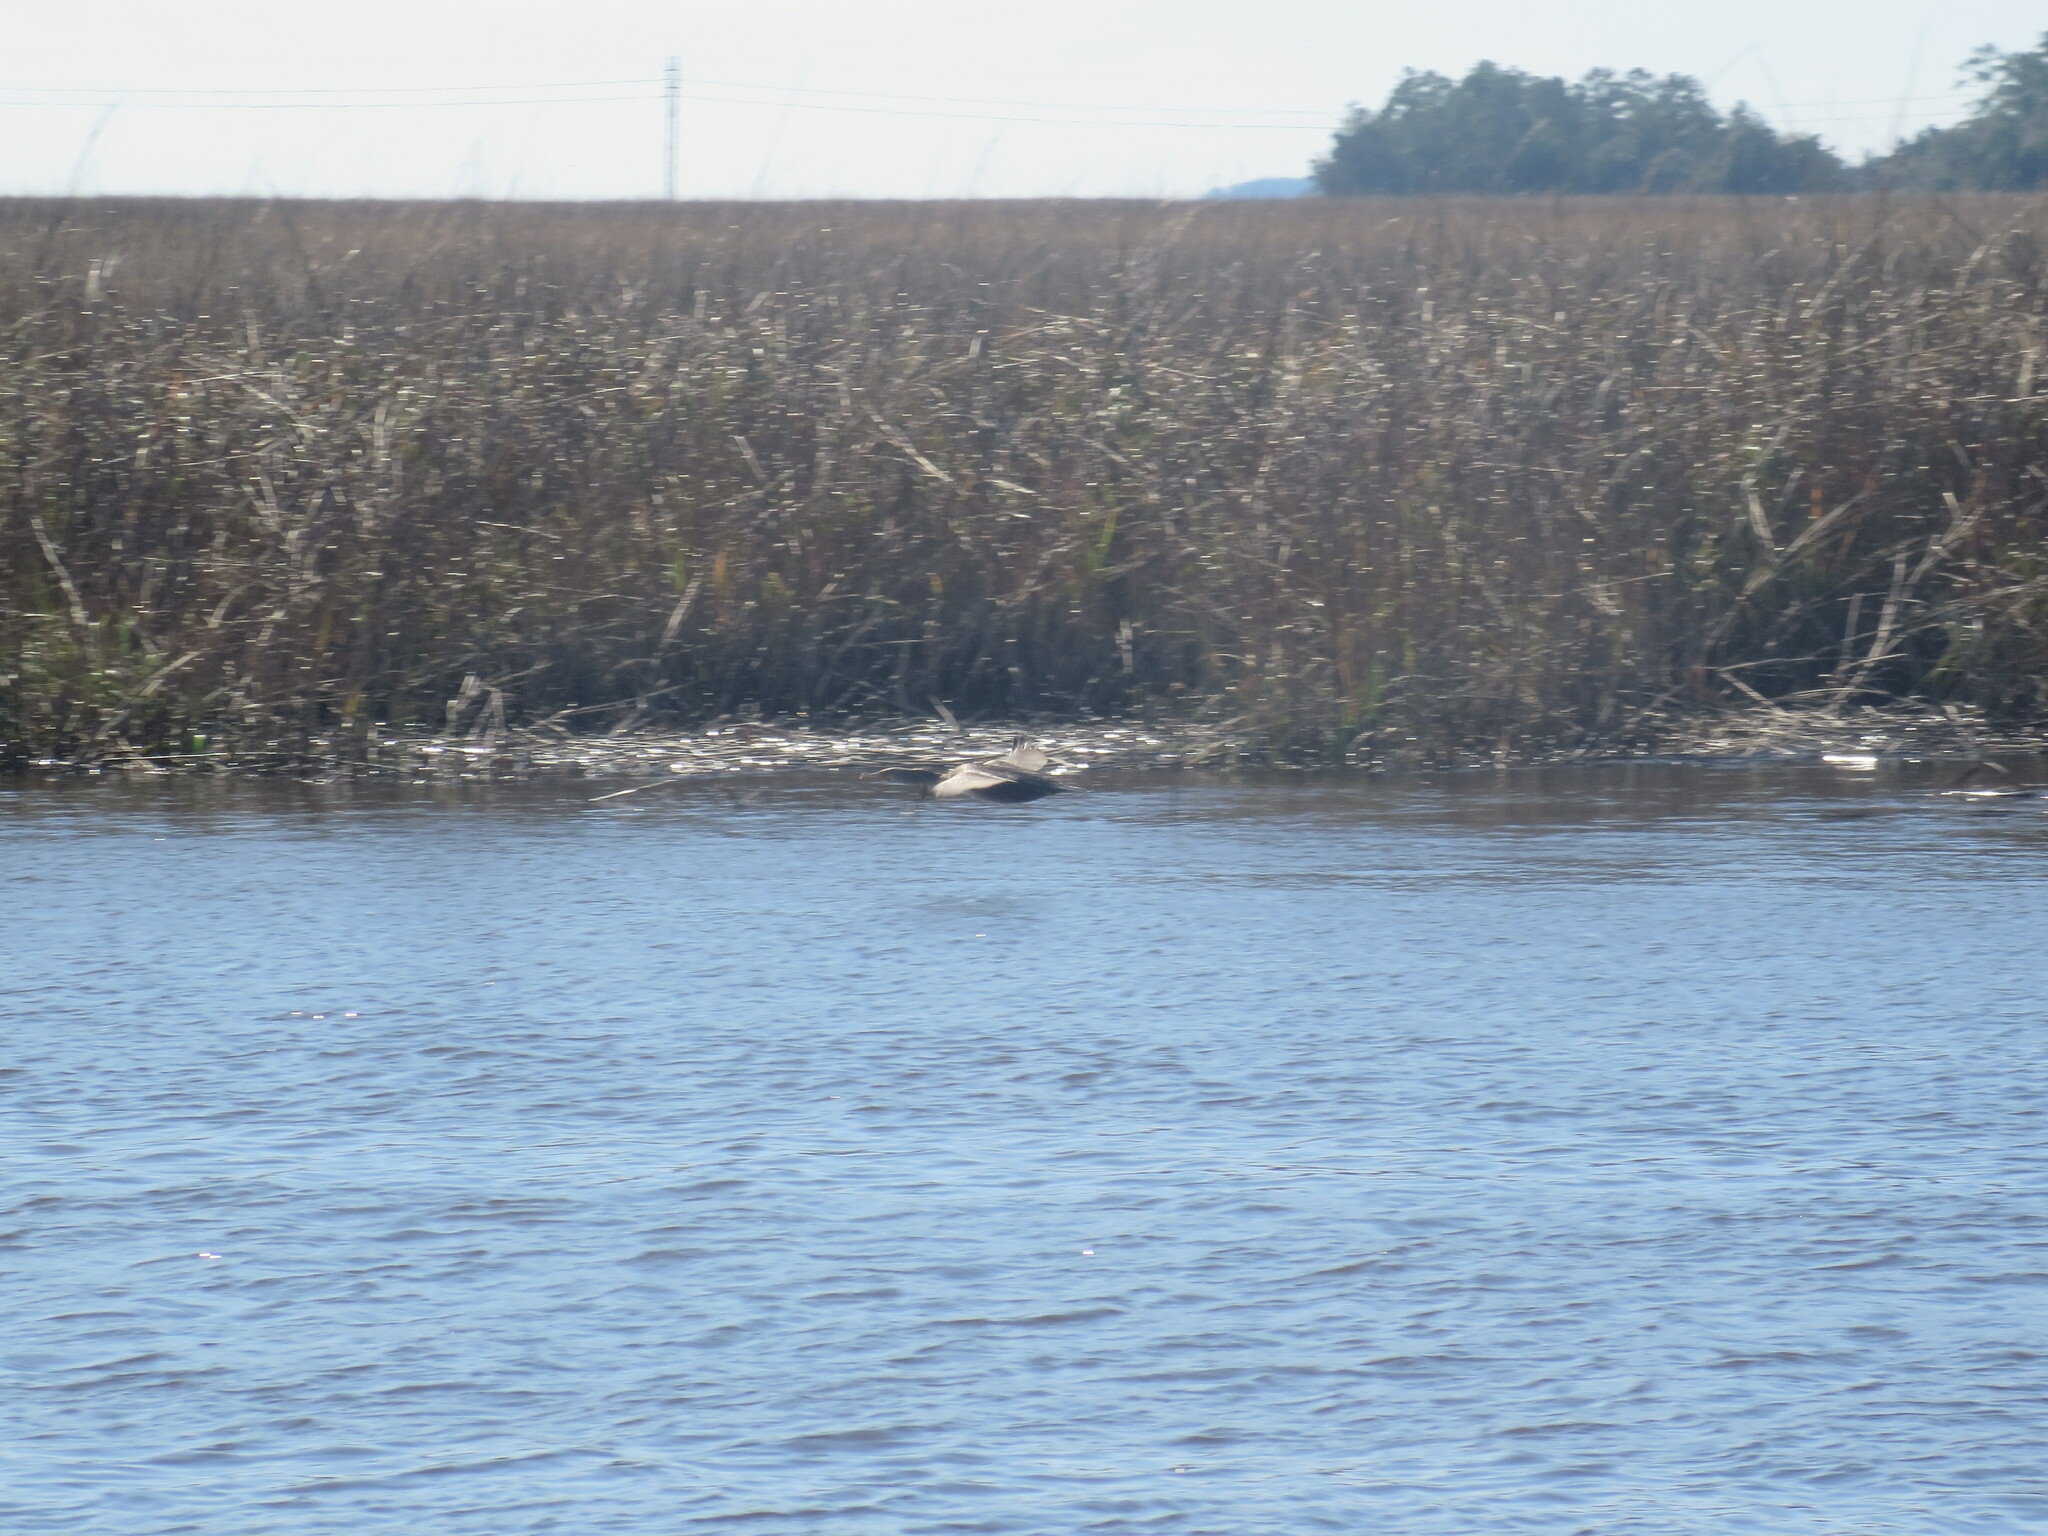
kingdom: Animalia
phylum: Chordata
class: Aves
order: Suliformes
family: Phalacrocoracidae
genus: Phalacrocorax
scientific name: Phalacrocorax auritus
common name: Double-crested cormorant
